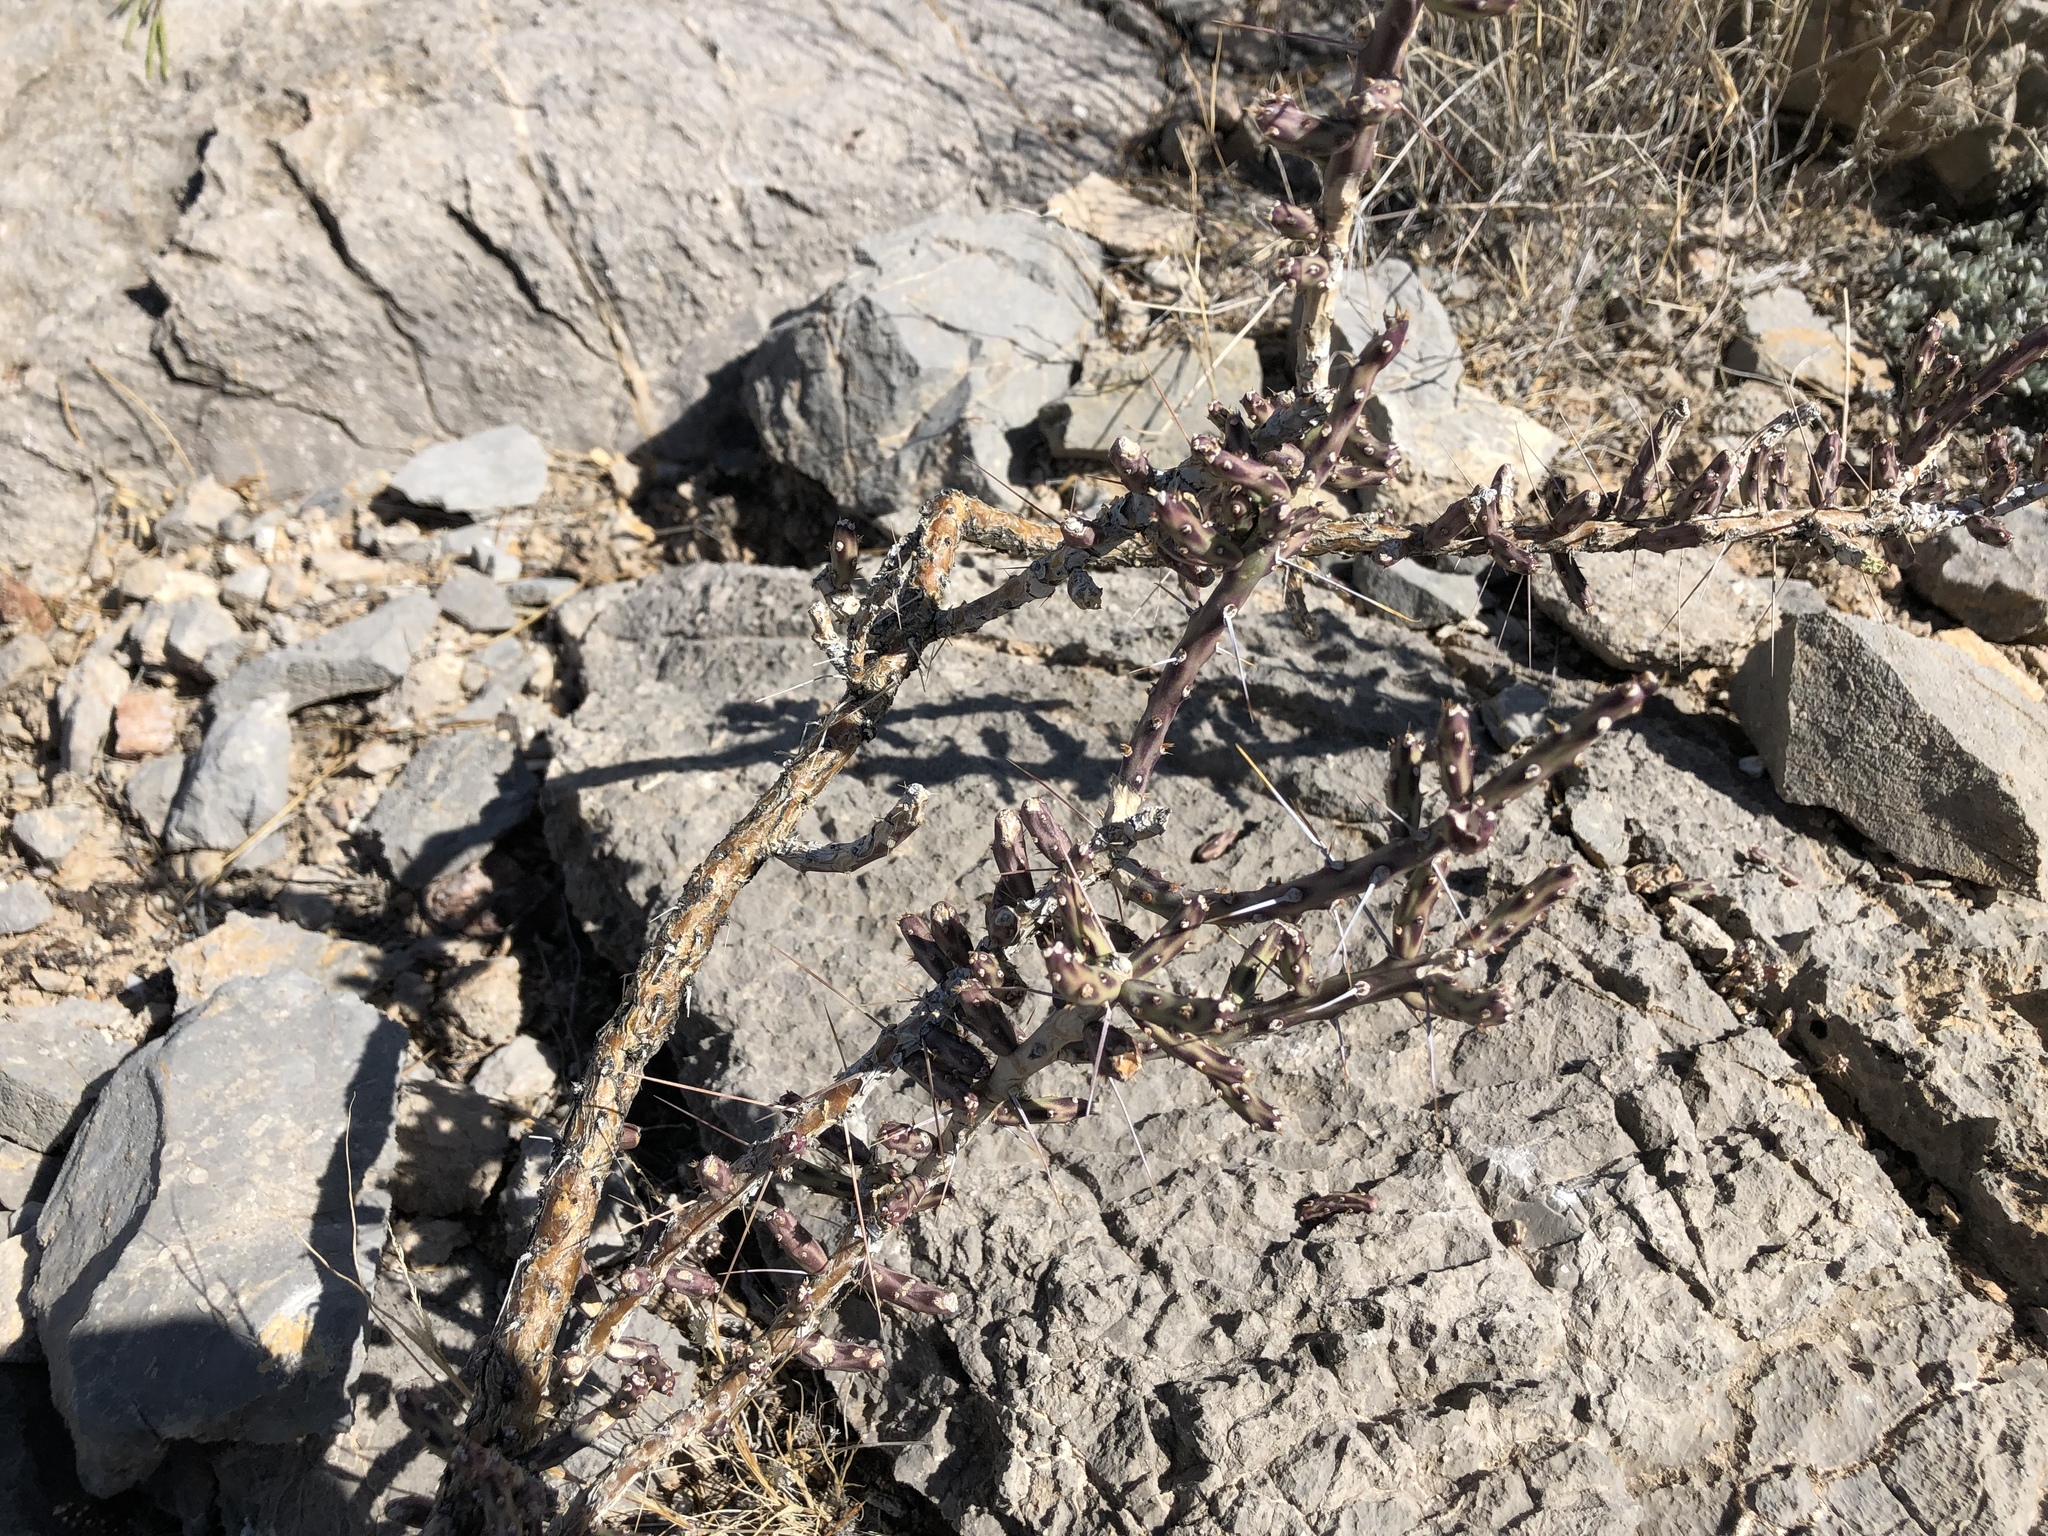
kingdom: Plantae
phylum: Tracheophyta
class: Magnoliopsida
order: Caryophyllales
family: Cactaceae
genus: Cylindropuntia
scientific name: Cylindropuntia leptocaulis
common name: Christmas cactus
